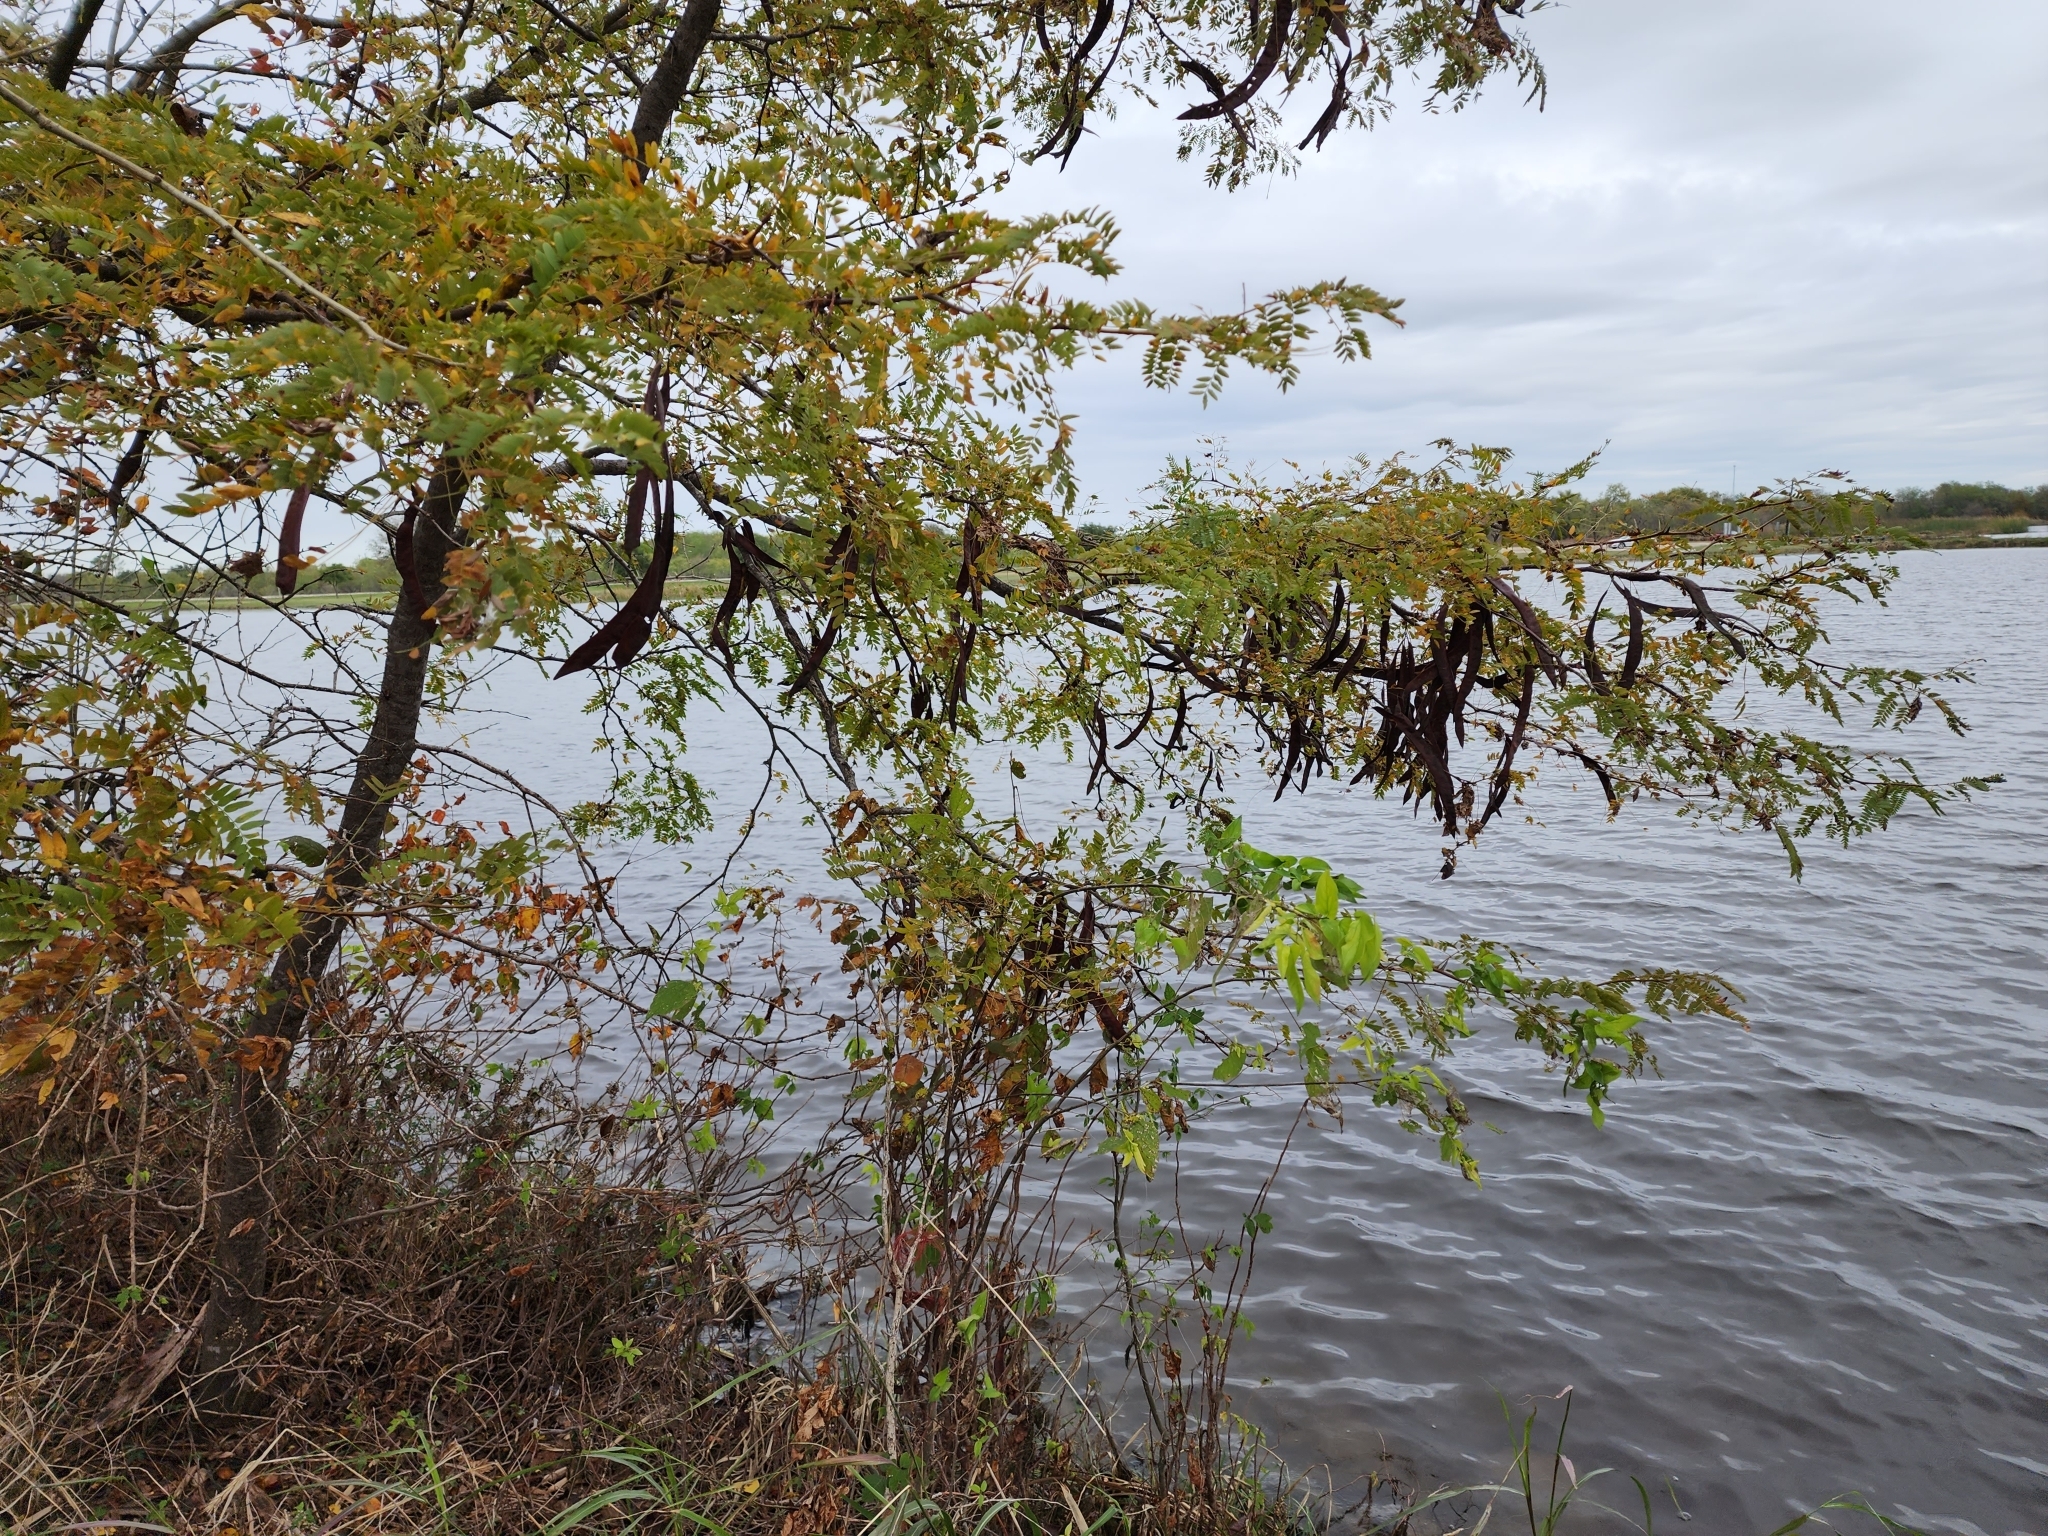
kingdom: Plantae
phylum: Tracheophyta
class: Magnoliopsida
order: Fabales
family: Fabaceae
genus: Gleditsia
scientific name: Gleditsia triacanthos
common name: Common honeylocust
